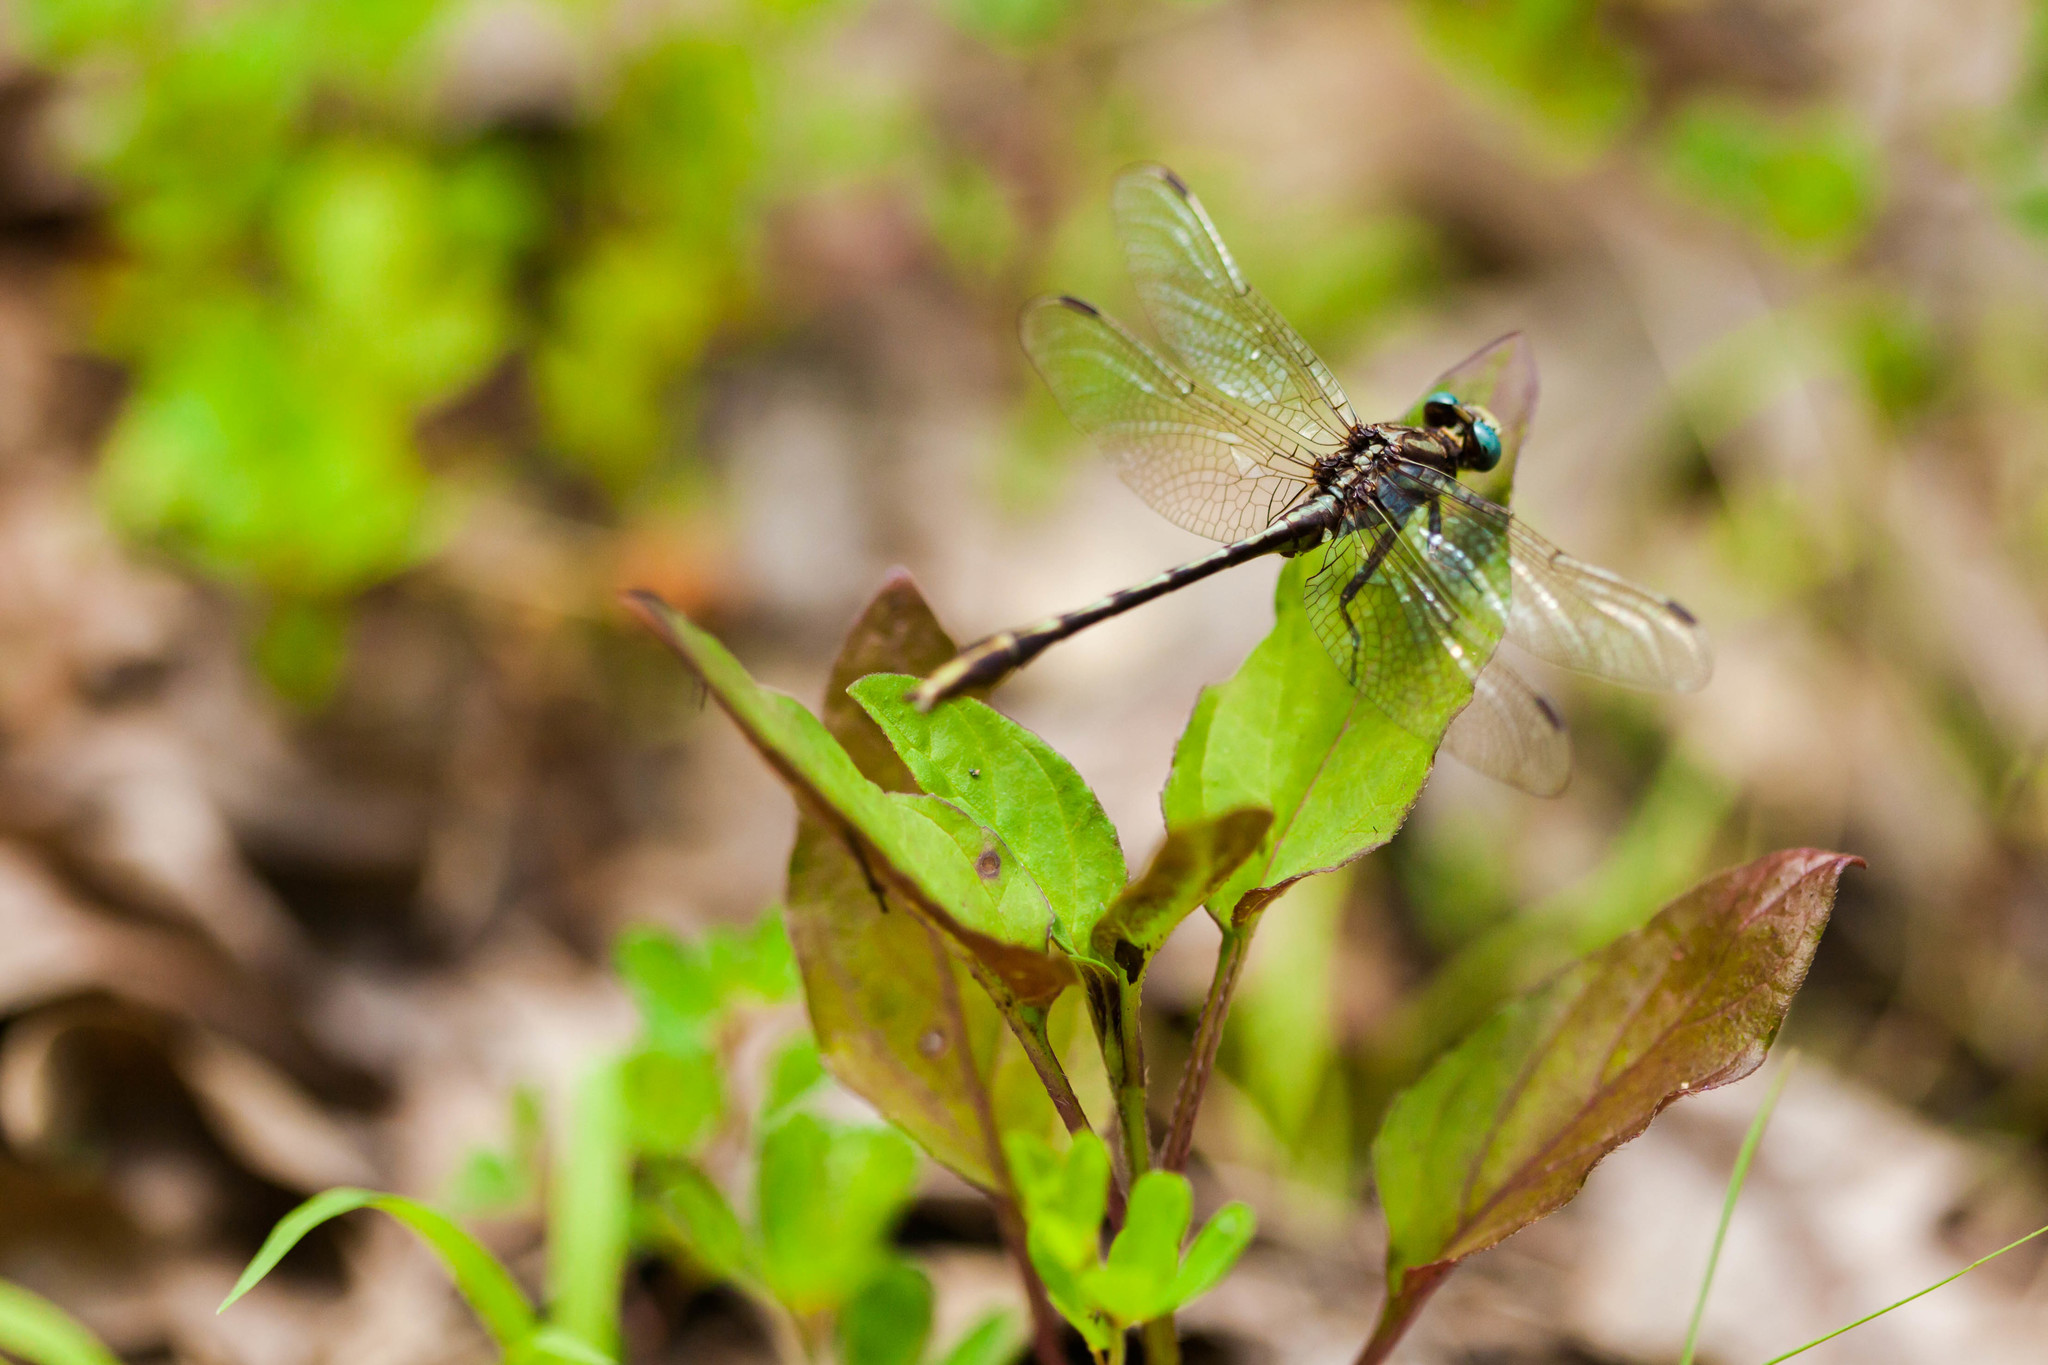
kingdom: Animalia
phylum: Arthropoda
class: Insecta
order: Odonata
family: Gomphidae
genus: Phanogomphus
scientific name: Phanogomphus exilis
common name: Lancet clubtail
